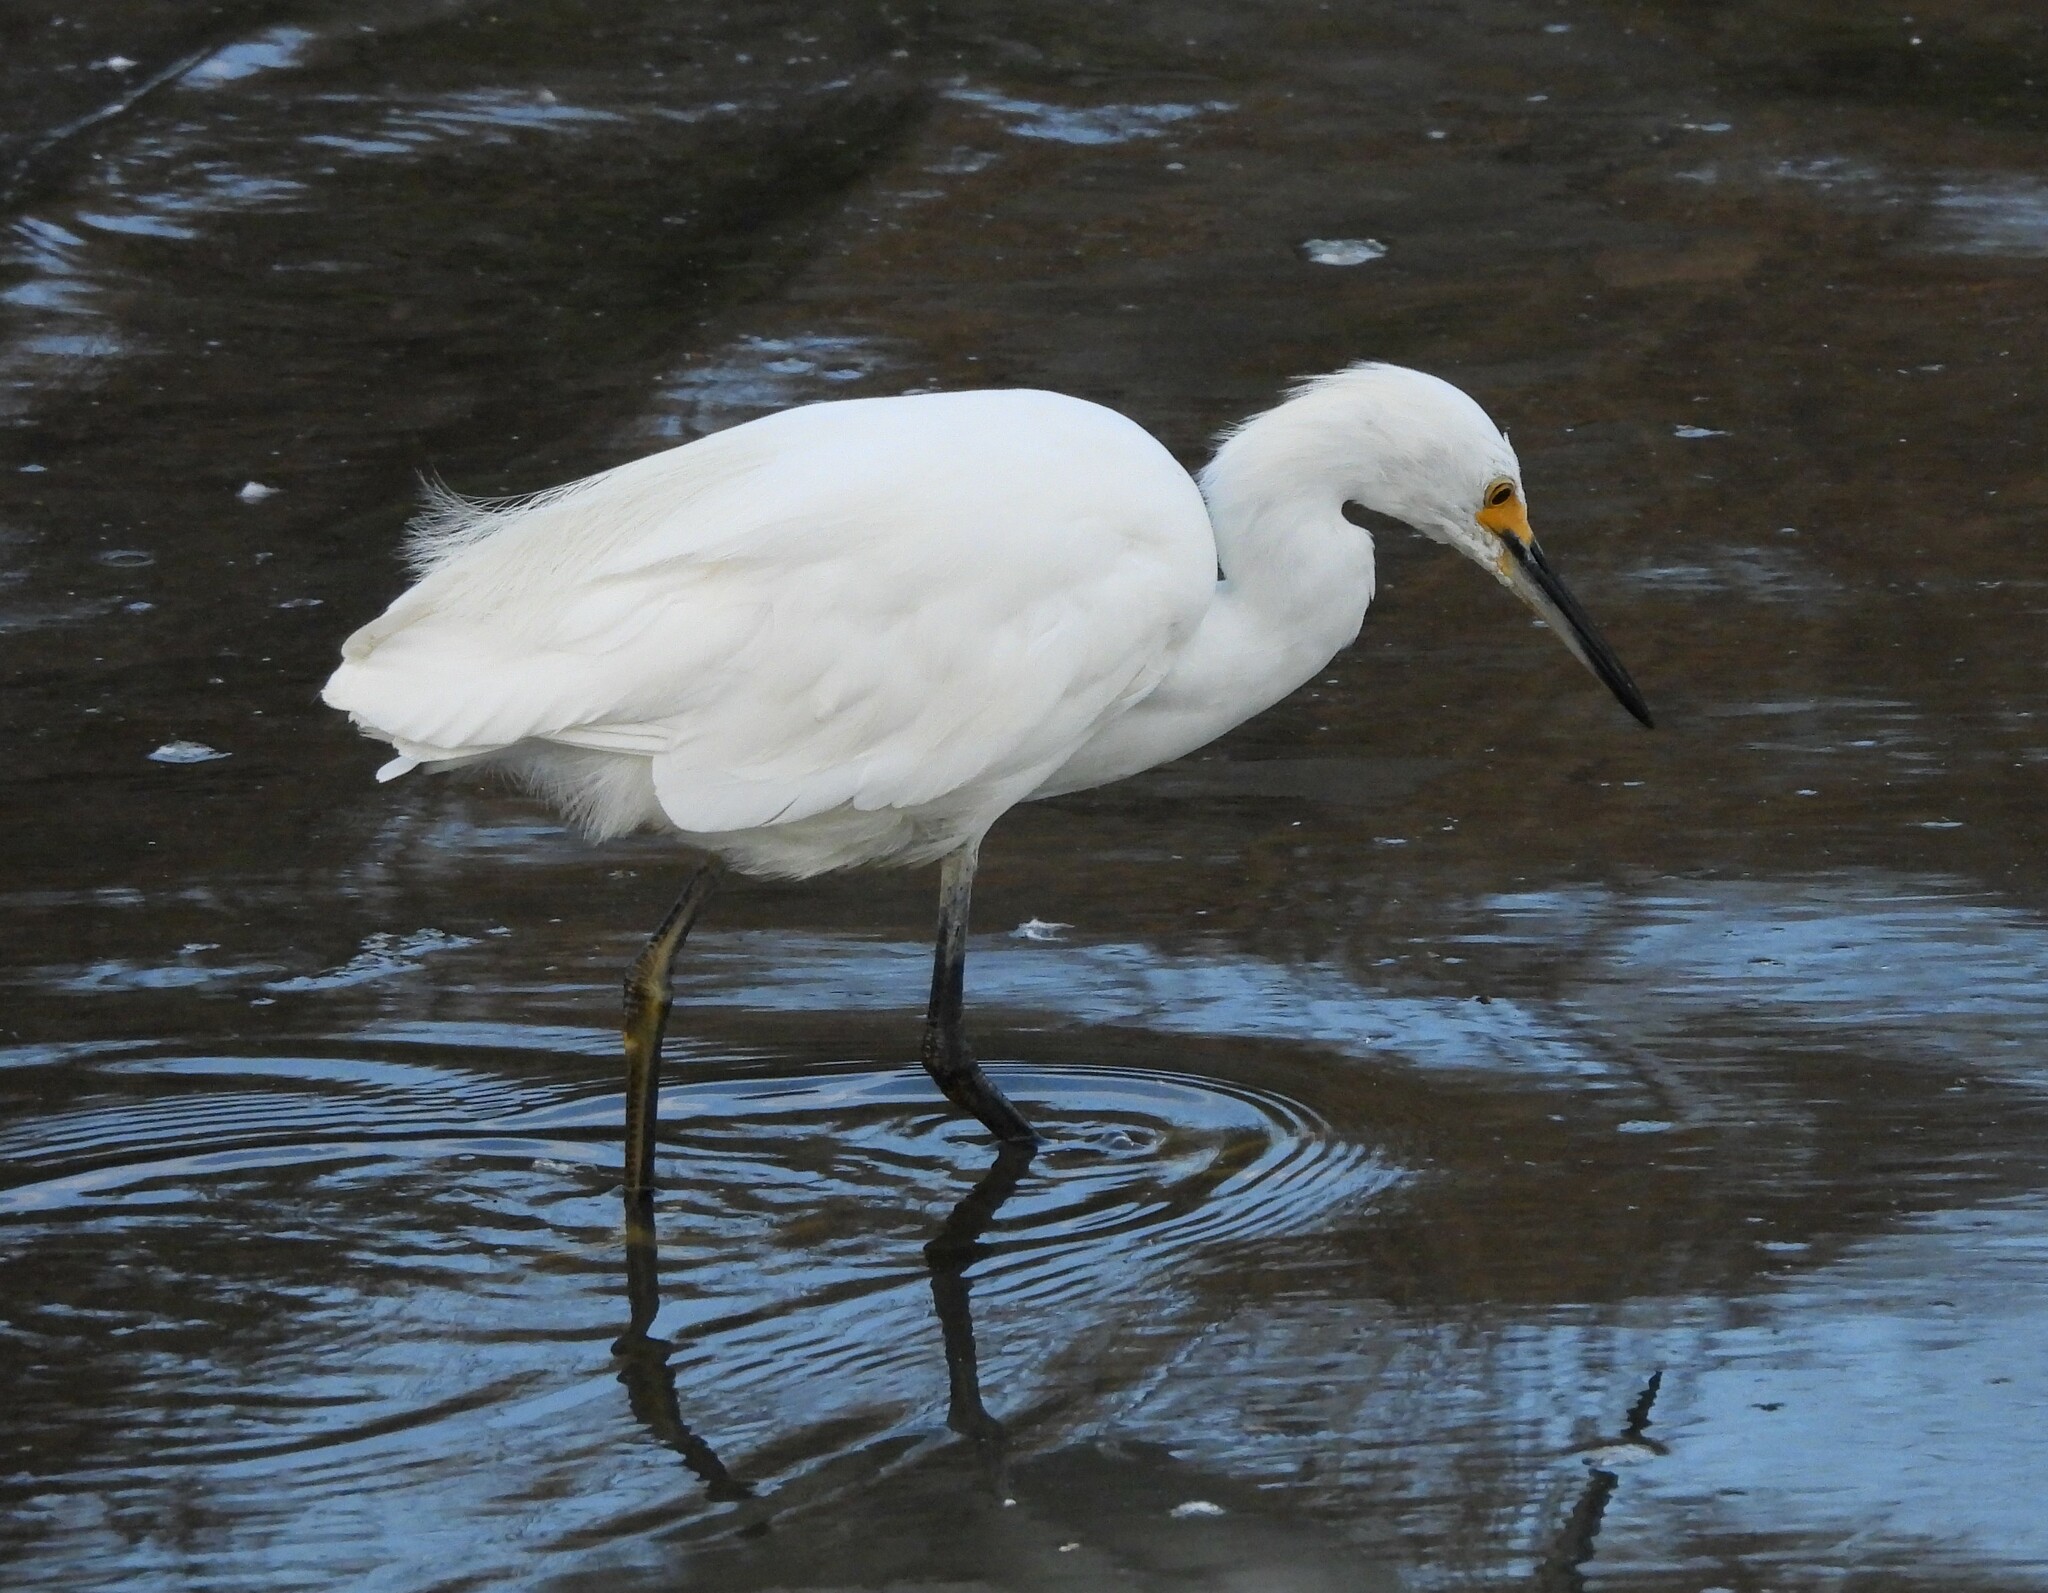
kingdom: Animalia
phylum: Chordata
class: Aves
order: Pelecaniformes
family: Ardeidae
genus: Egretta
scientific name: Egretta thula
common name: Snowy egret
